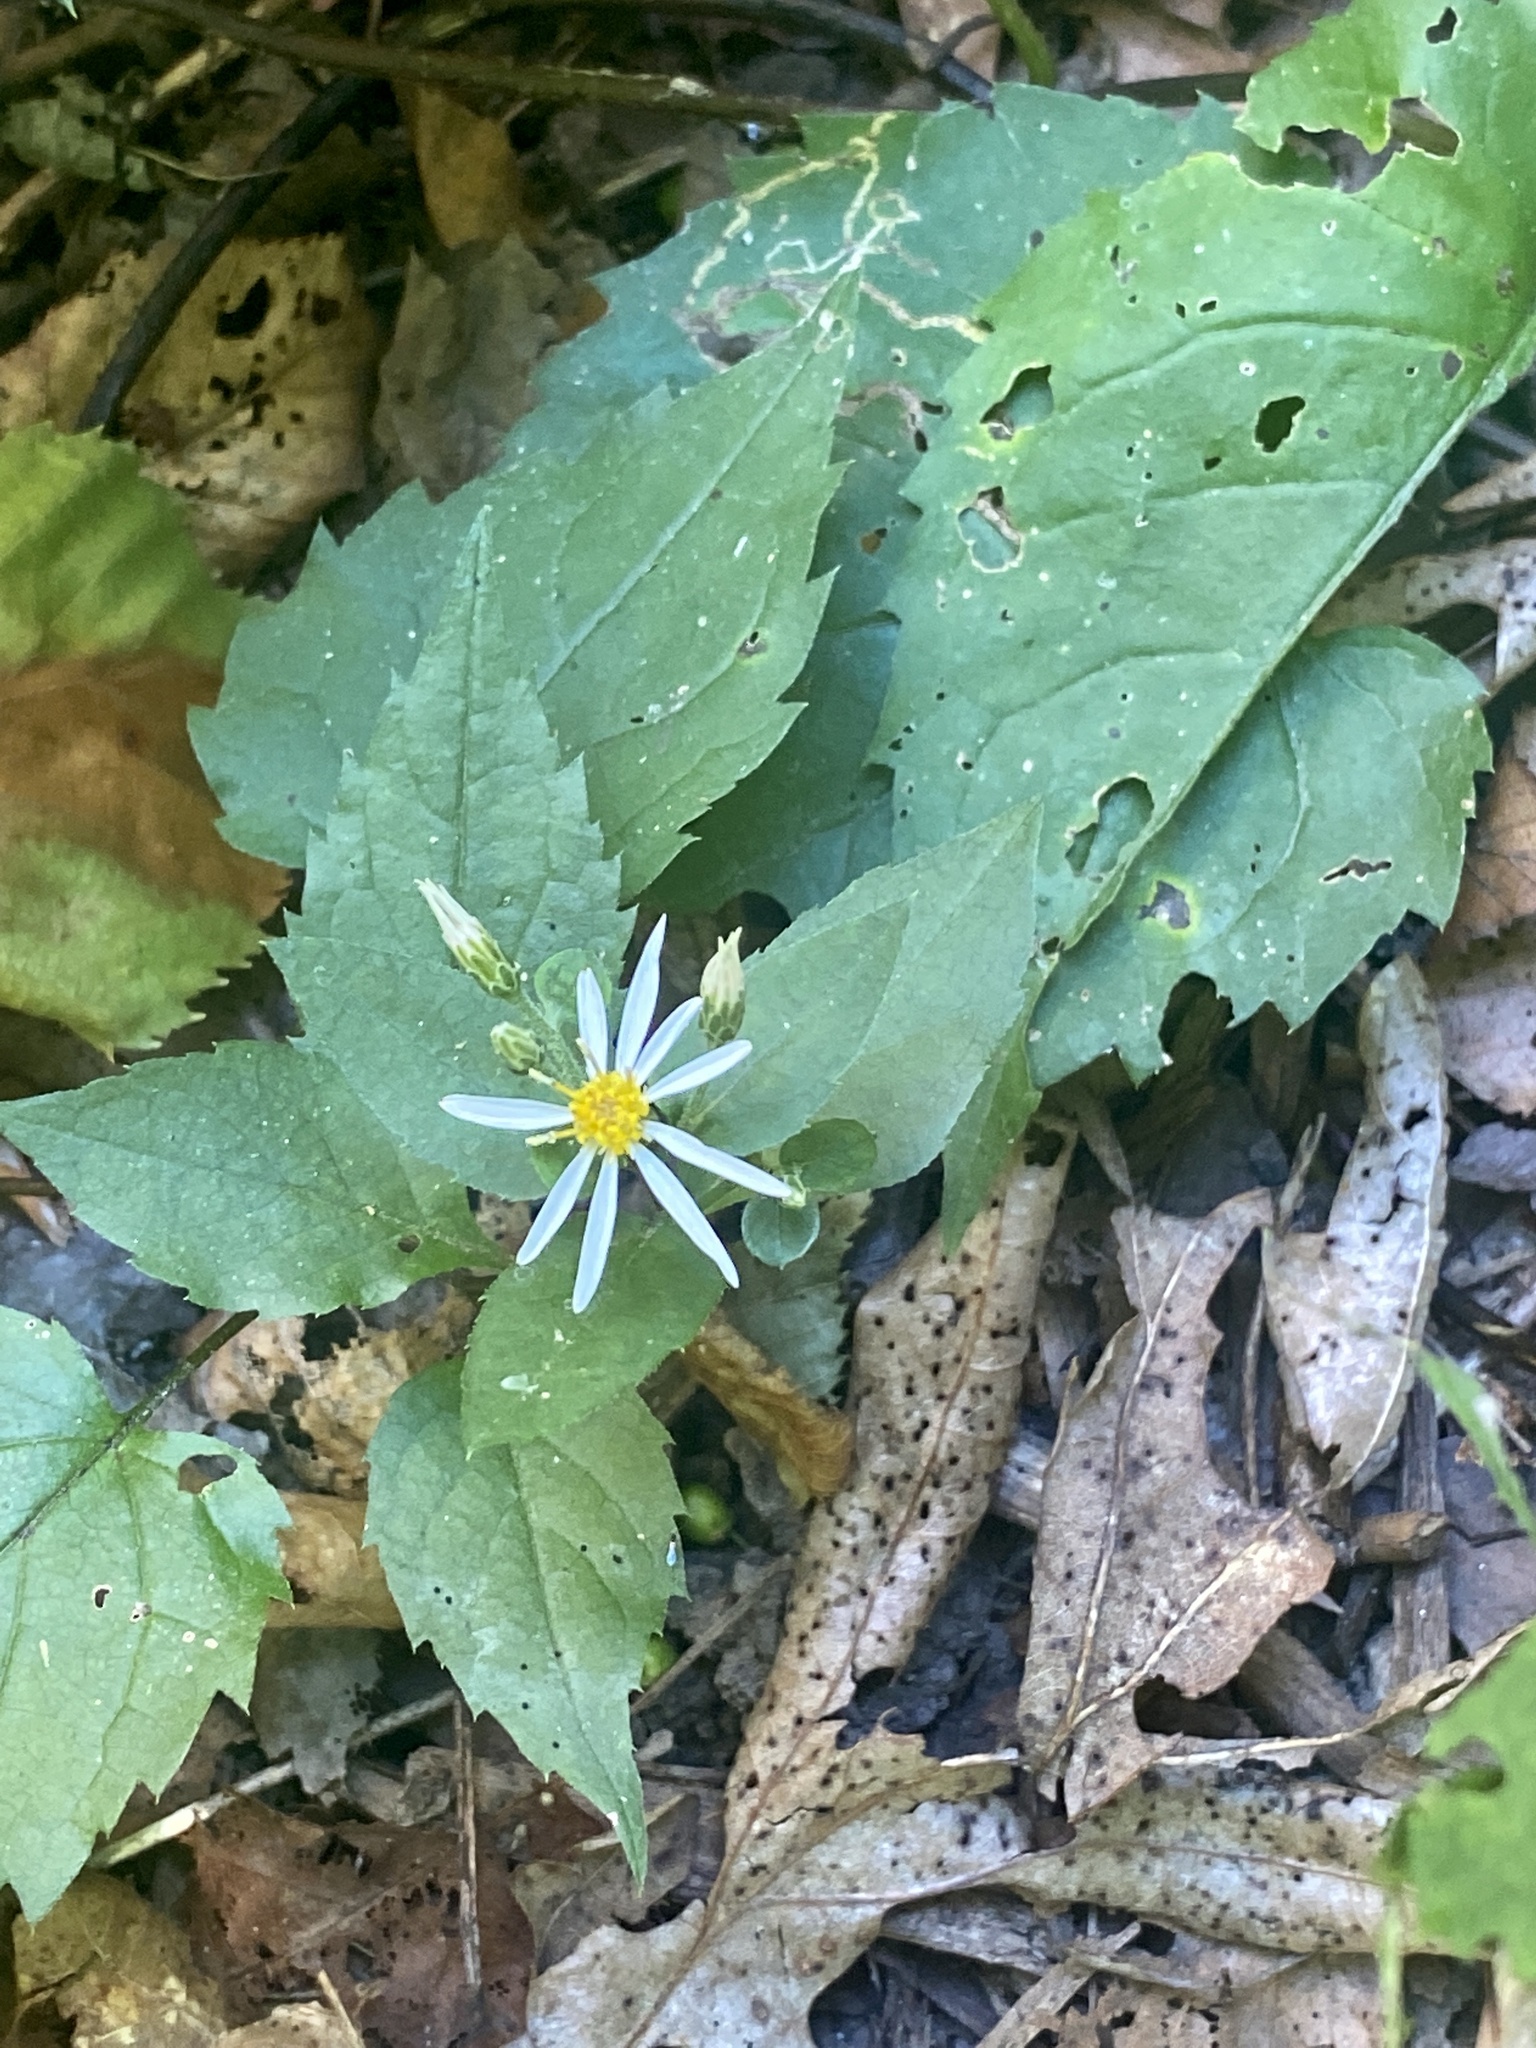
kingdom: Plantae
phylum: Tracheophyta
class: Magnoliopsida
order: Asterales
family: Asteraceae
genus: Eurybia
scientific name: Eurybia divaricata
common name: White wood aster
